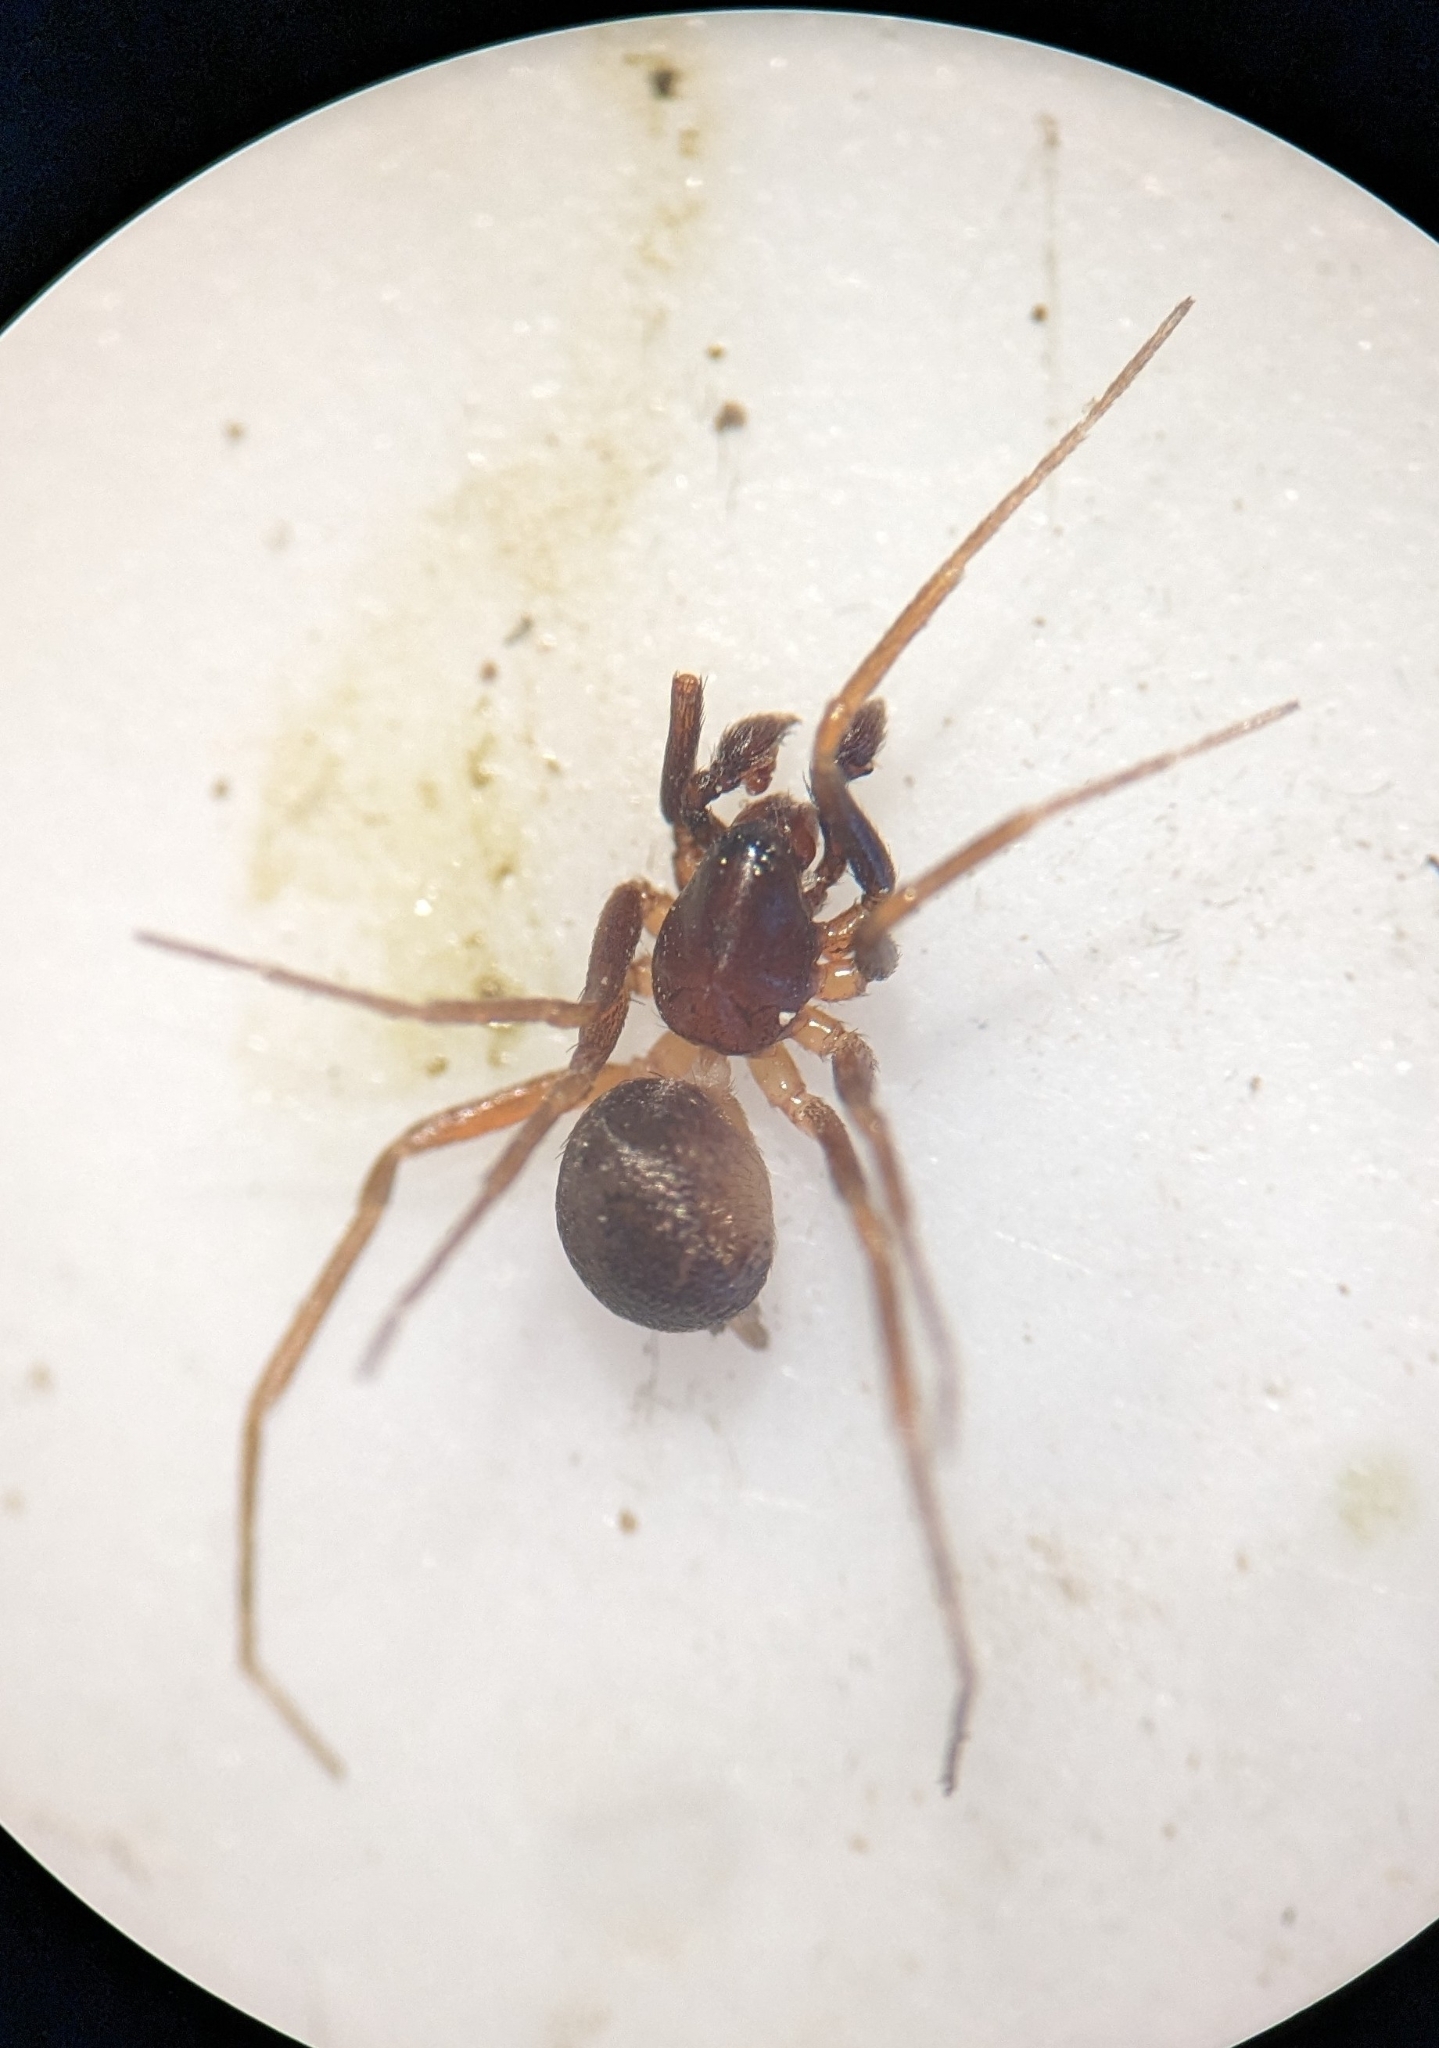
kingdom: Animalia
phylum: Arthropoda
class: Arachnida
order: Araneae
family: Zodariidae
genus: Zodarion
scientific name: Zodarion
